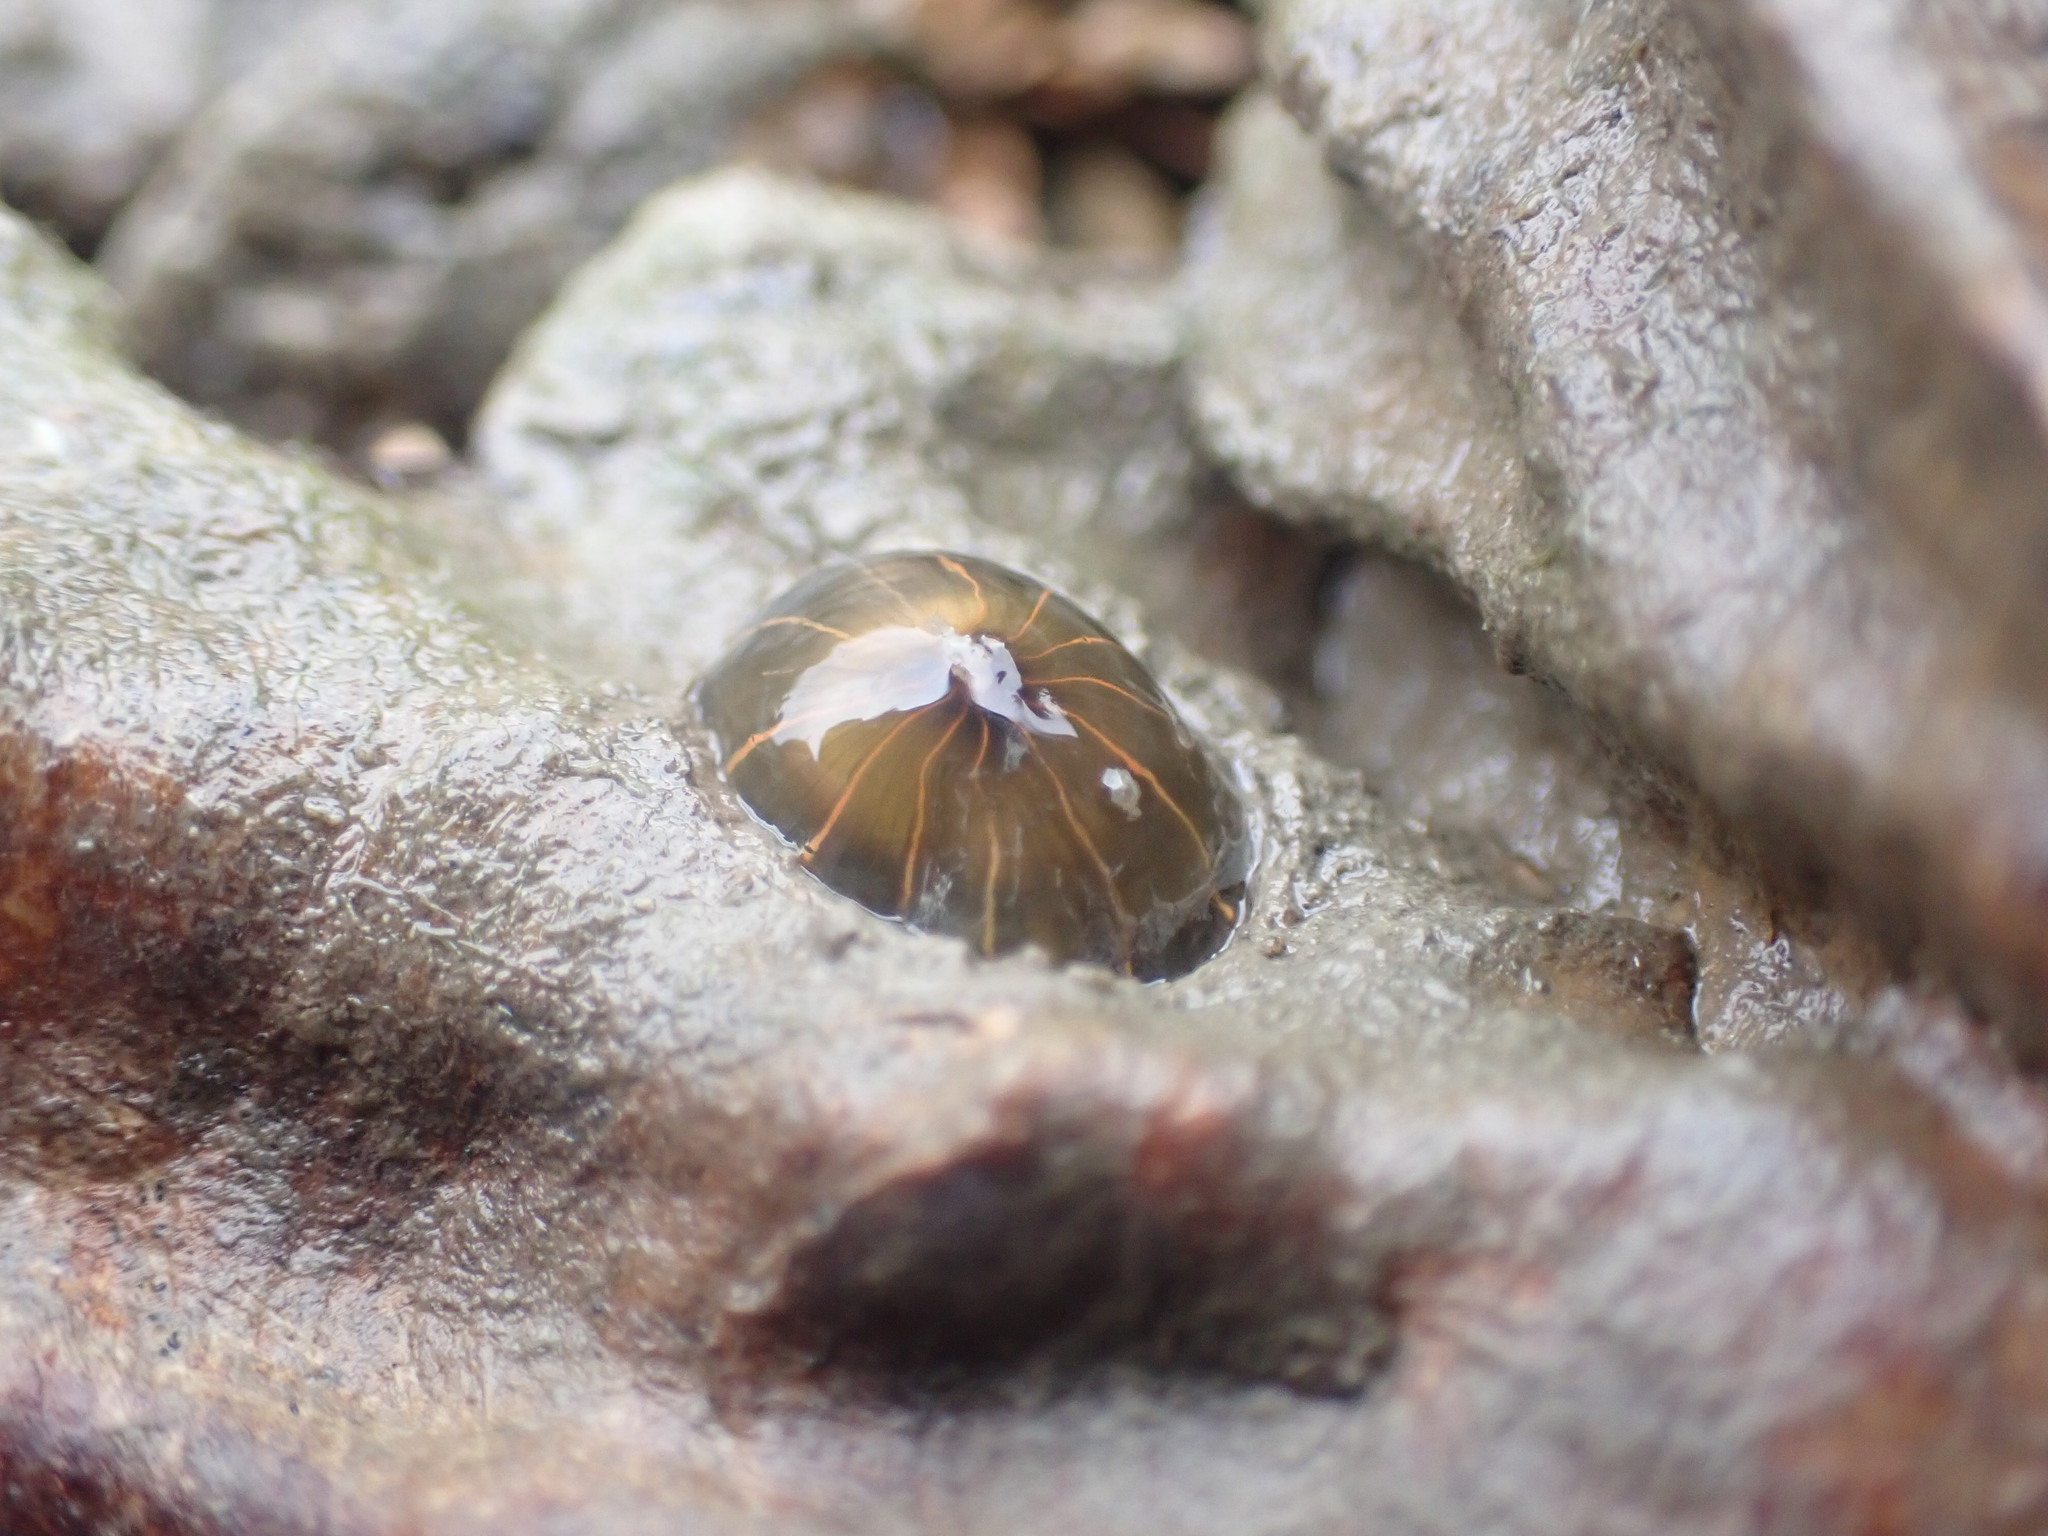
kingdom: Animalia
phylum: Cnidaria
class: Anthozoa
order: Actiniaria
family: Diadumenidae
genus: Diadumene
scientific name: Diadumene lineata
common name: Orange-striped anemone
